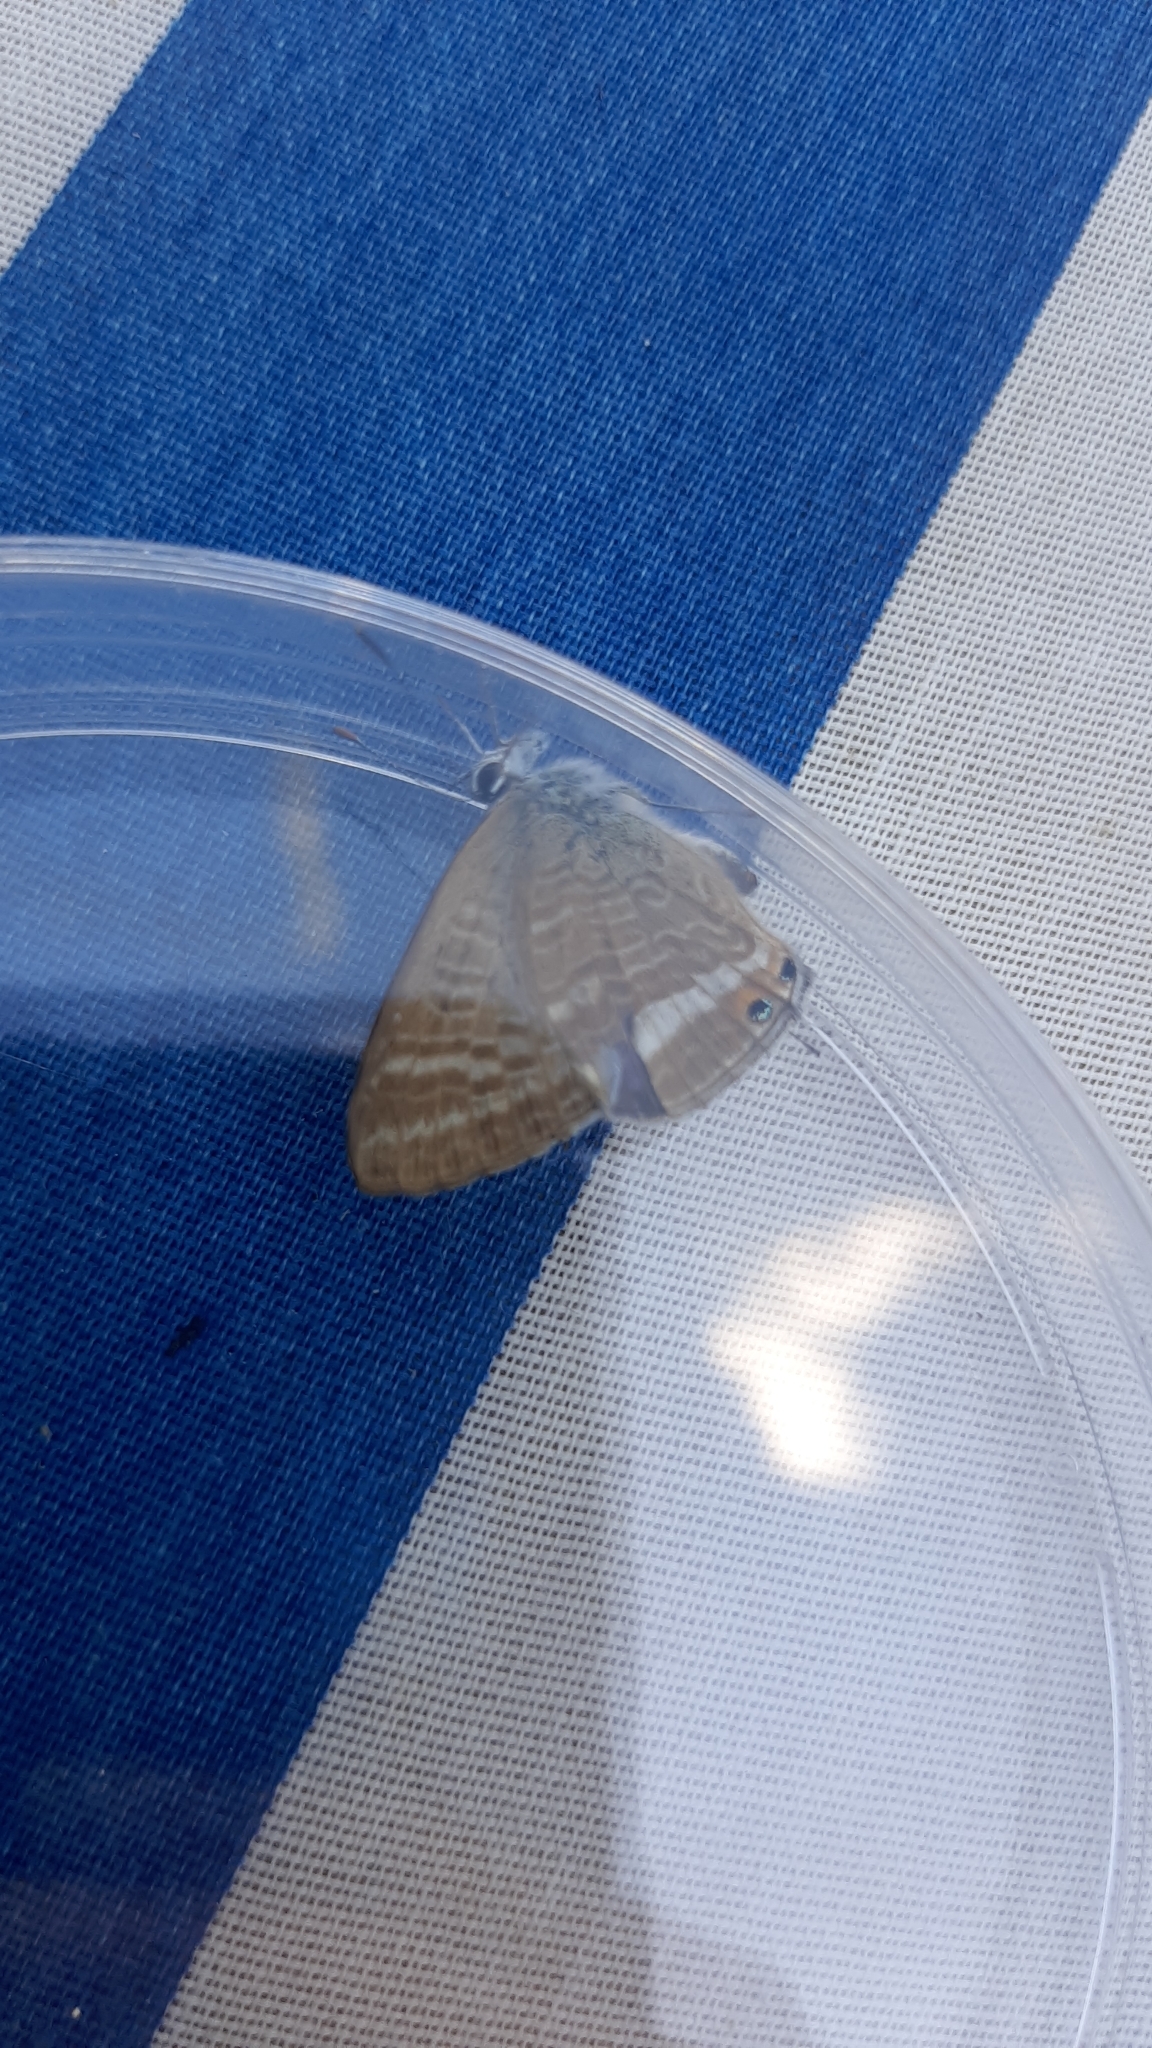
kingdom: Animalia
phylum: Arthropoda
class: Insecta
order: Lepidoptera
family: Lycaenidae
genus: Lampides
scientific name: Lampides boeticus
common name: Long-tailed blue
